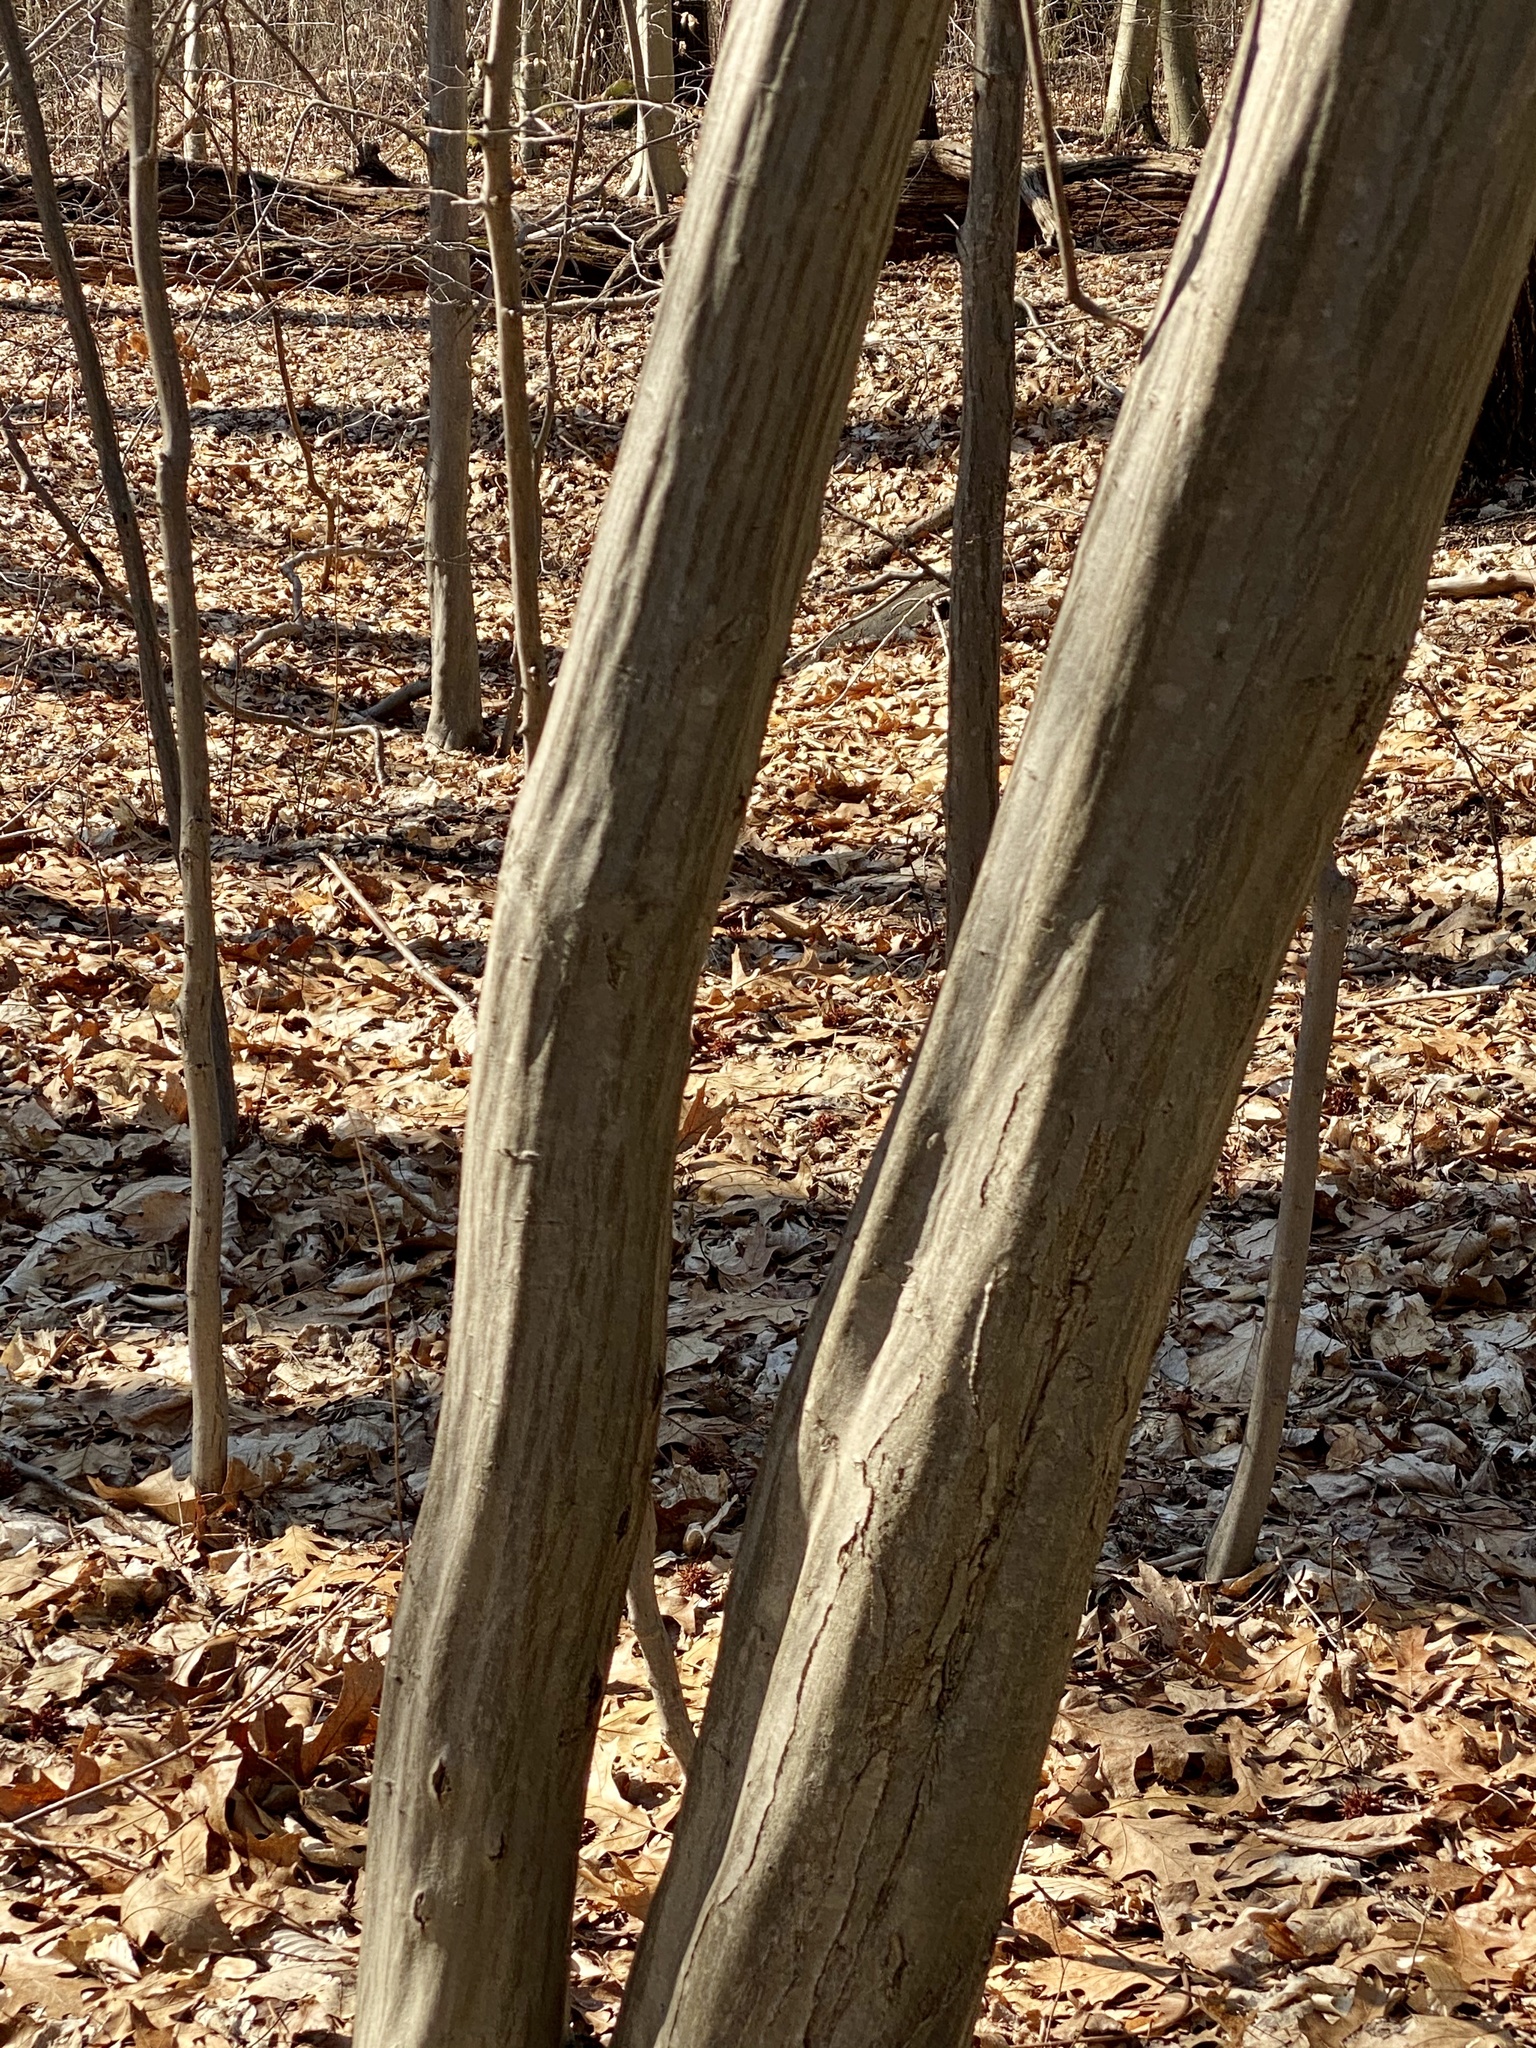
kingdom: Plantae
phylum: Tracheophyta
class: Magnoliopsida
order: Fagales
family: Betulaceae
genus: Carpinus
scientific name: Carpinus caroliniana
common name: American hornbeam
